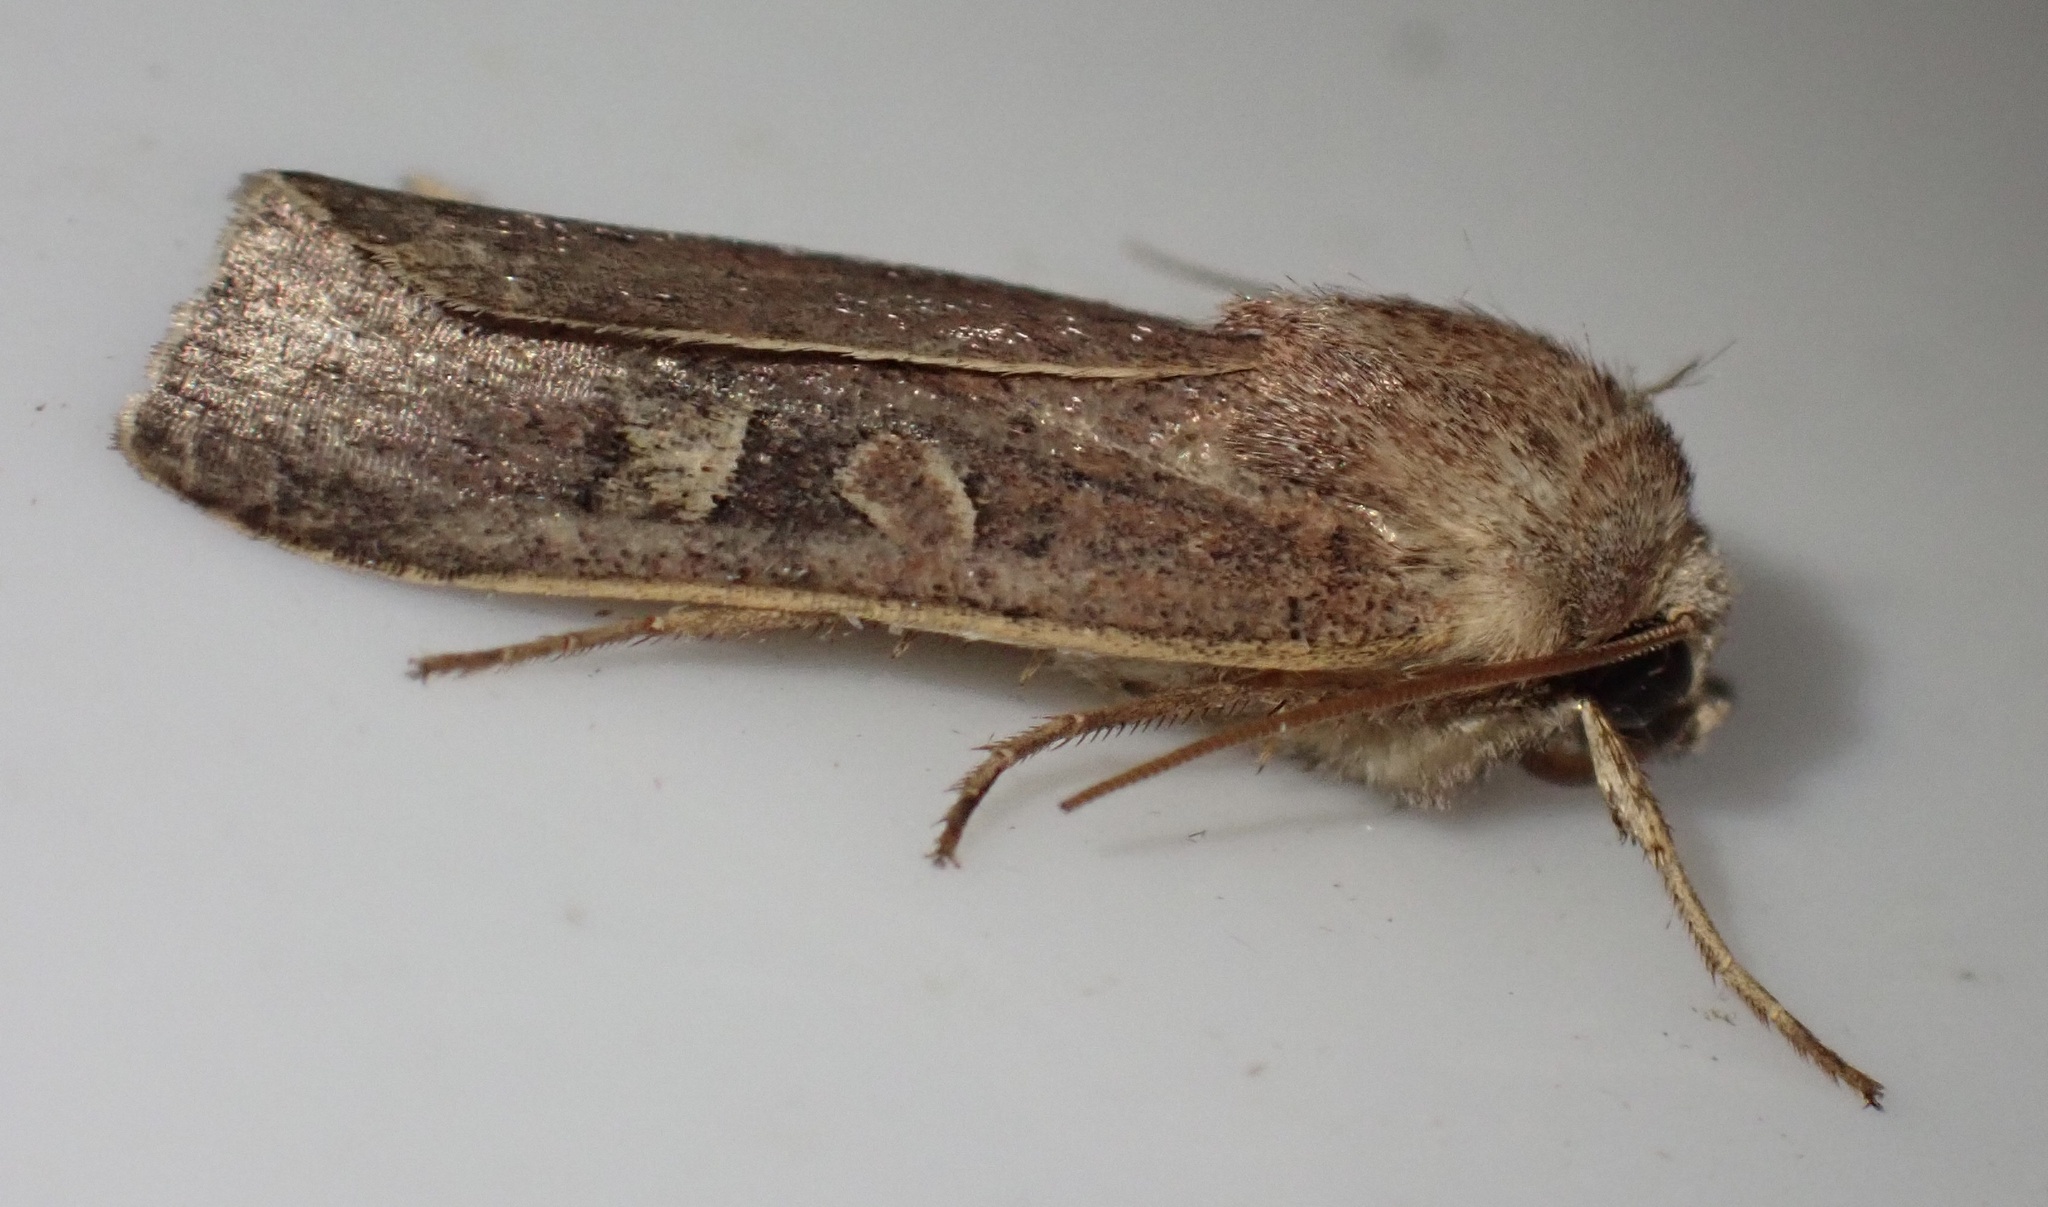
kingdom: Animalia
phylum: Arthropoda
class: Insecta
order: Lepidoptera
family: Noctuidae
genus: Xestia
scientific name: Xestia xanthographa
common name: Square-spot rustic
